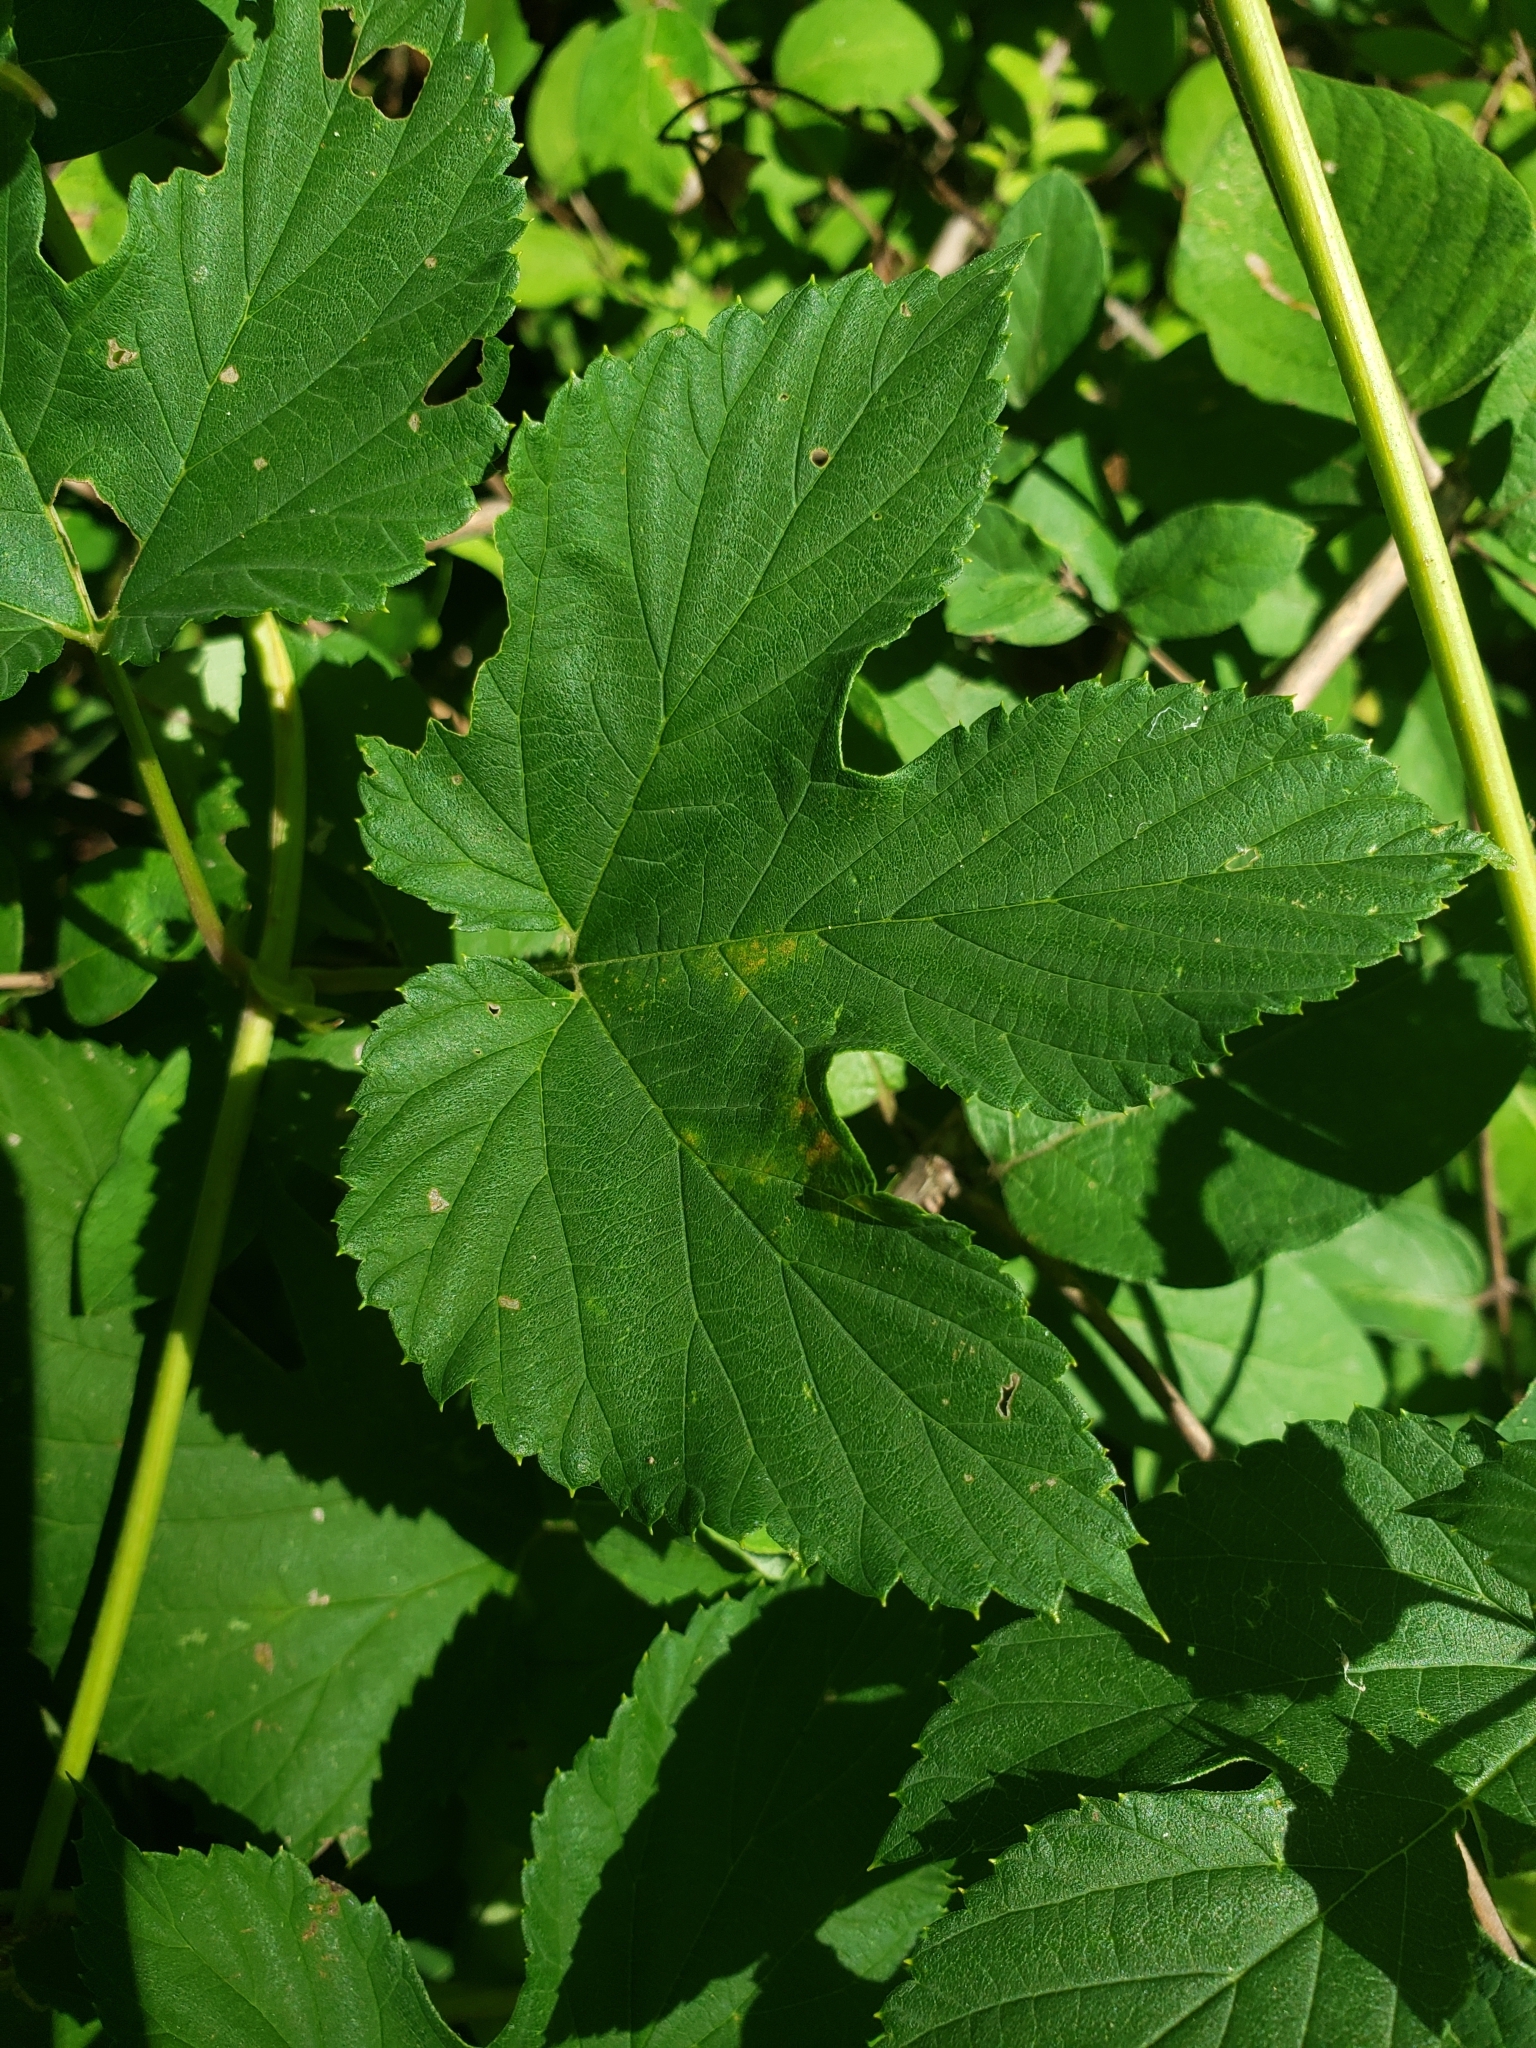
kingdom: Plantae
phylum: Tracheophyta
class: Magnoliopsida
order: Rosales
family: Cannabaceae
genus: Humulus
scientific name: Humulus lupulus
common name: Hop
